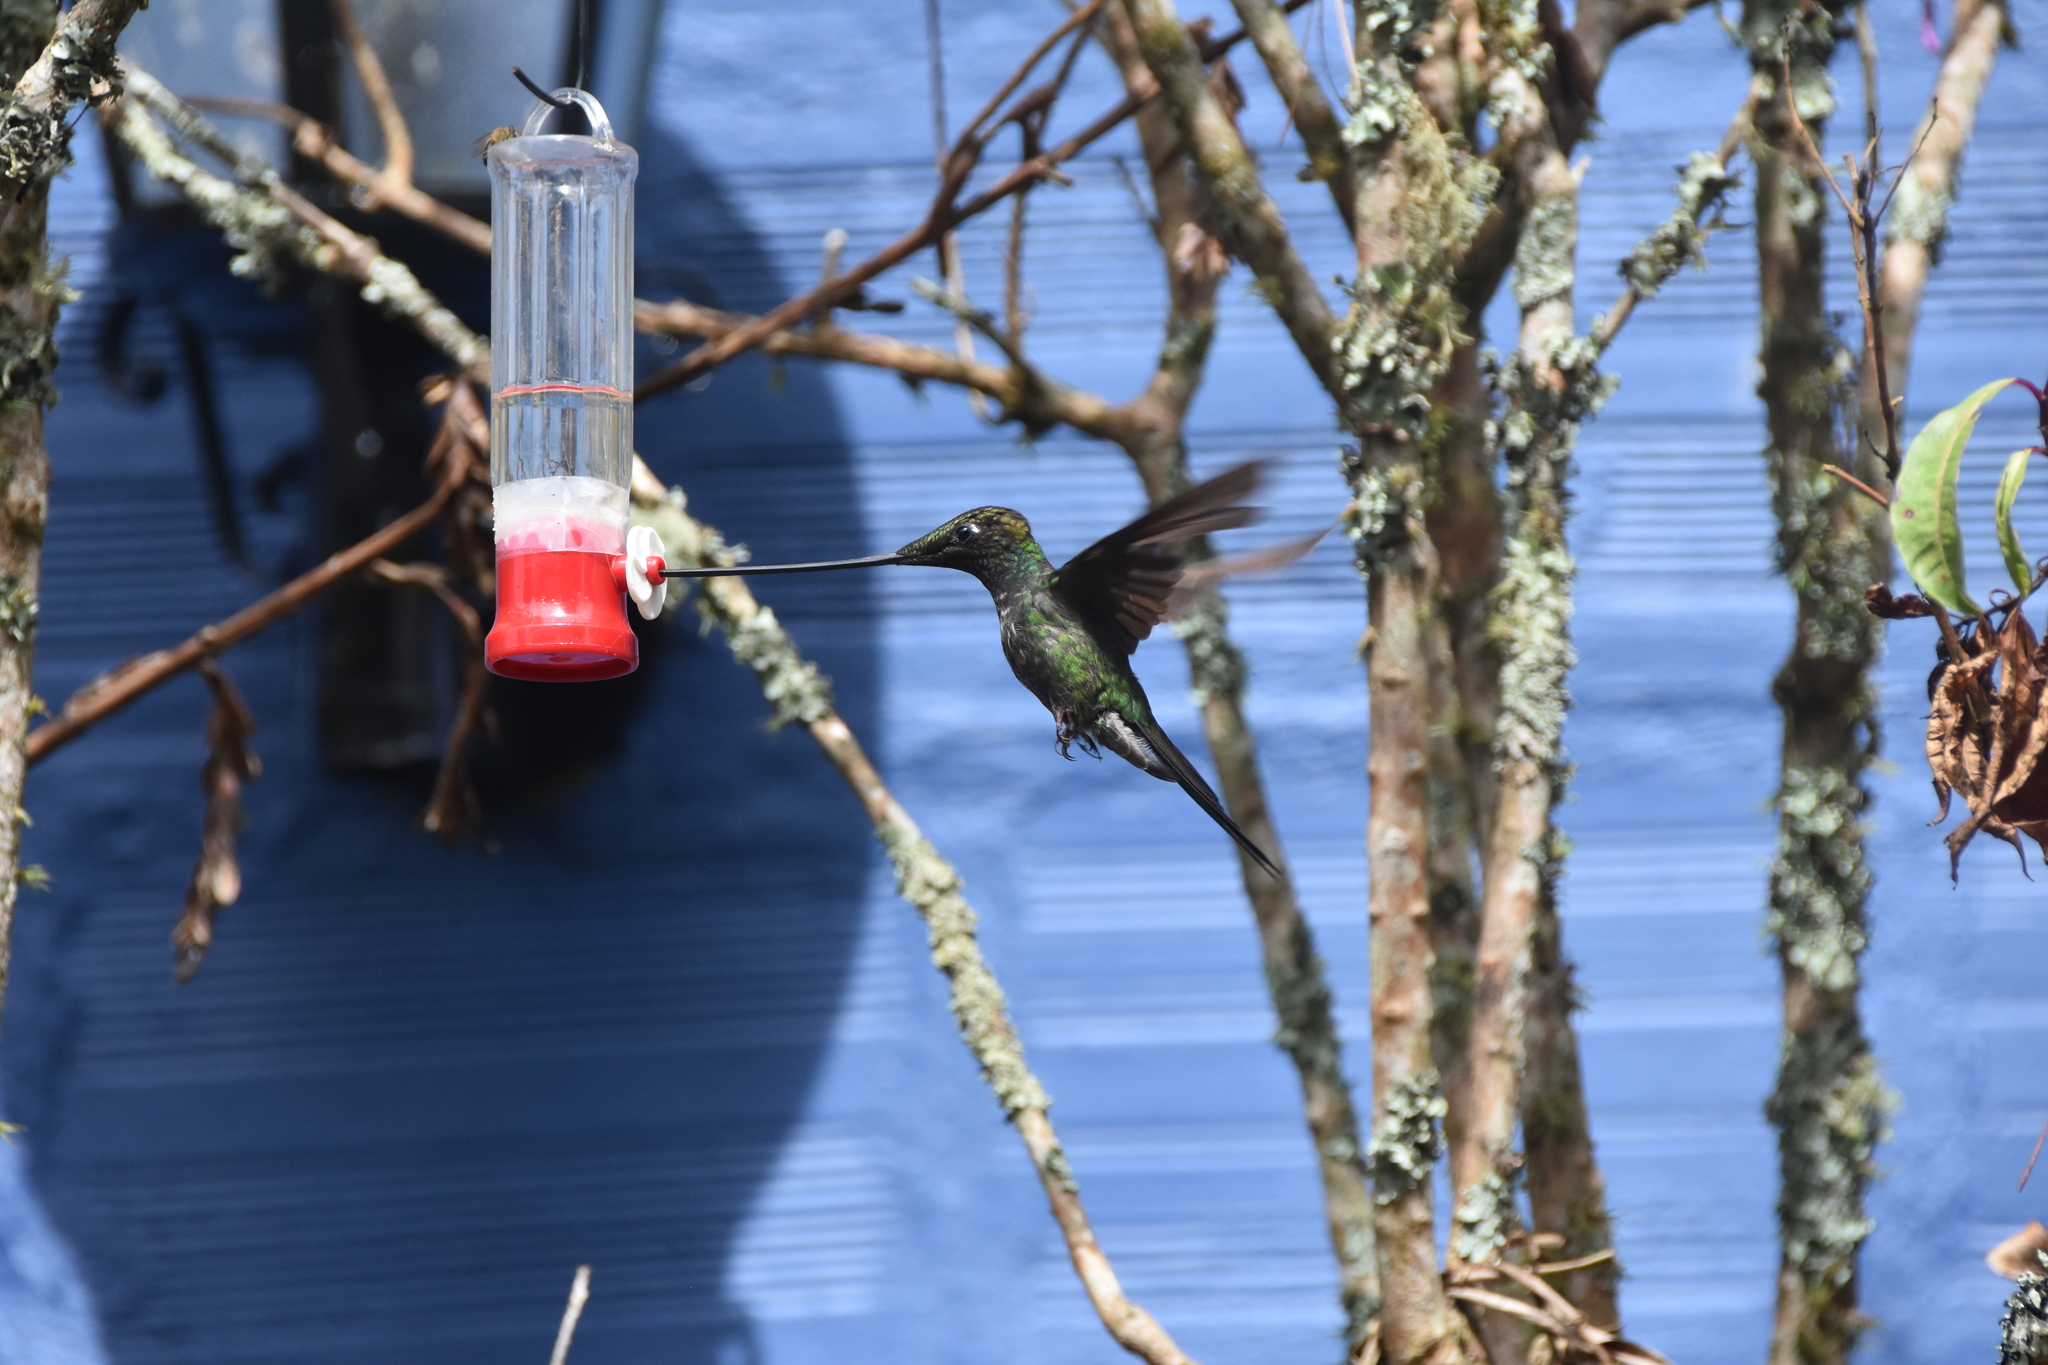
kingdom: Animalia
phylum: Chordata
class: Aves
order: Apodiformes
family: Trochilidae
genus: Ensifera
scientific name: Ensifera ensifera
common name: Sword-billed hummingbird
